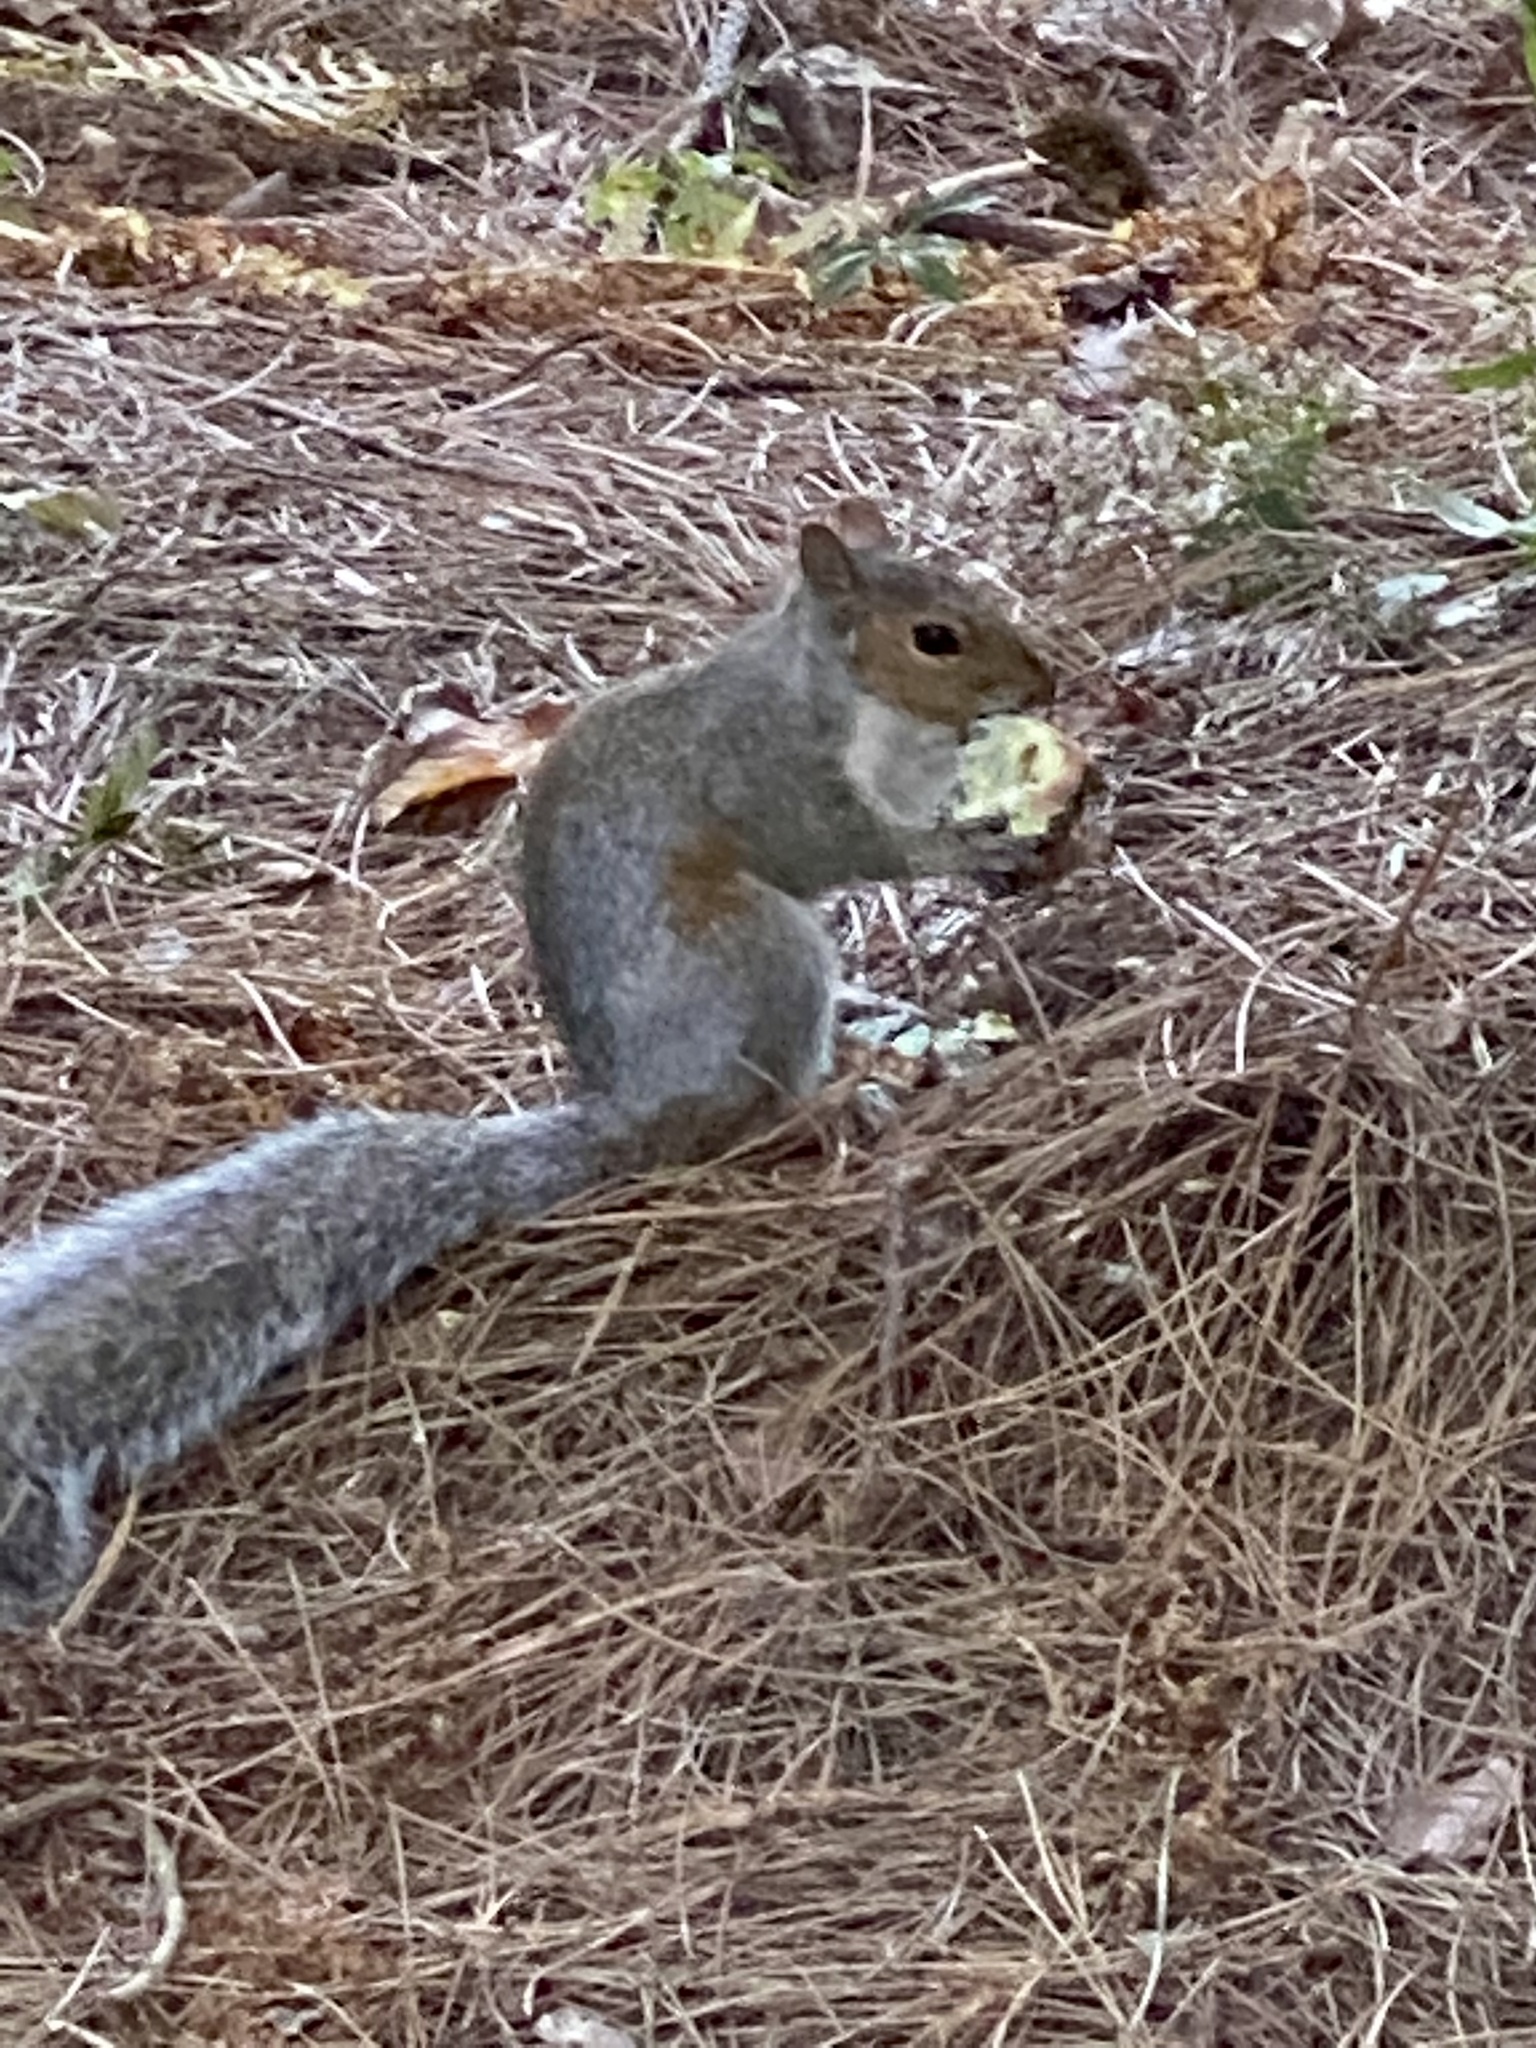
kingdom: Animalia
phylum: Chordata
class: Mammalia
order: Rodentia
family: Sciuridae
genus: Sciurus
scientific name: Sciurus carolinensis
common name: Eastern gray squirrel
